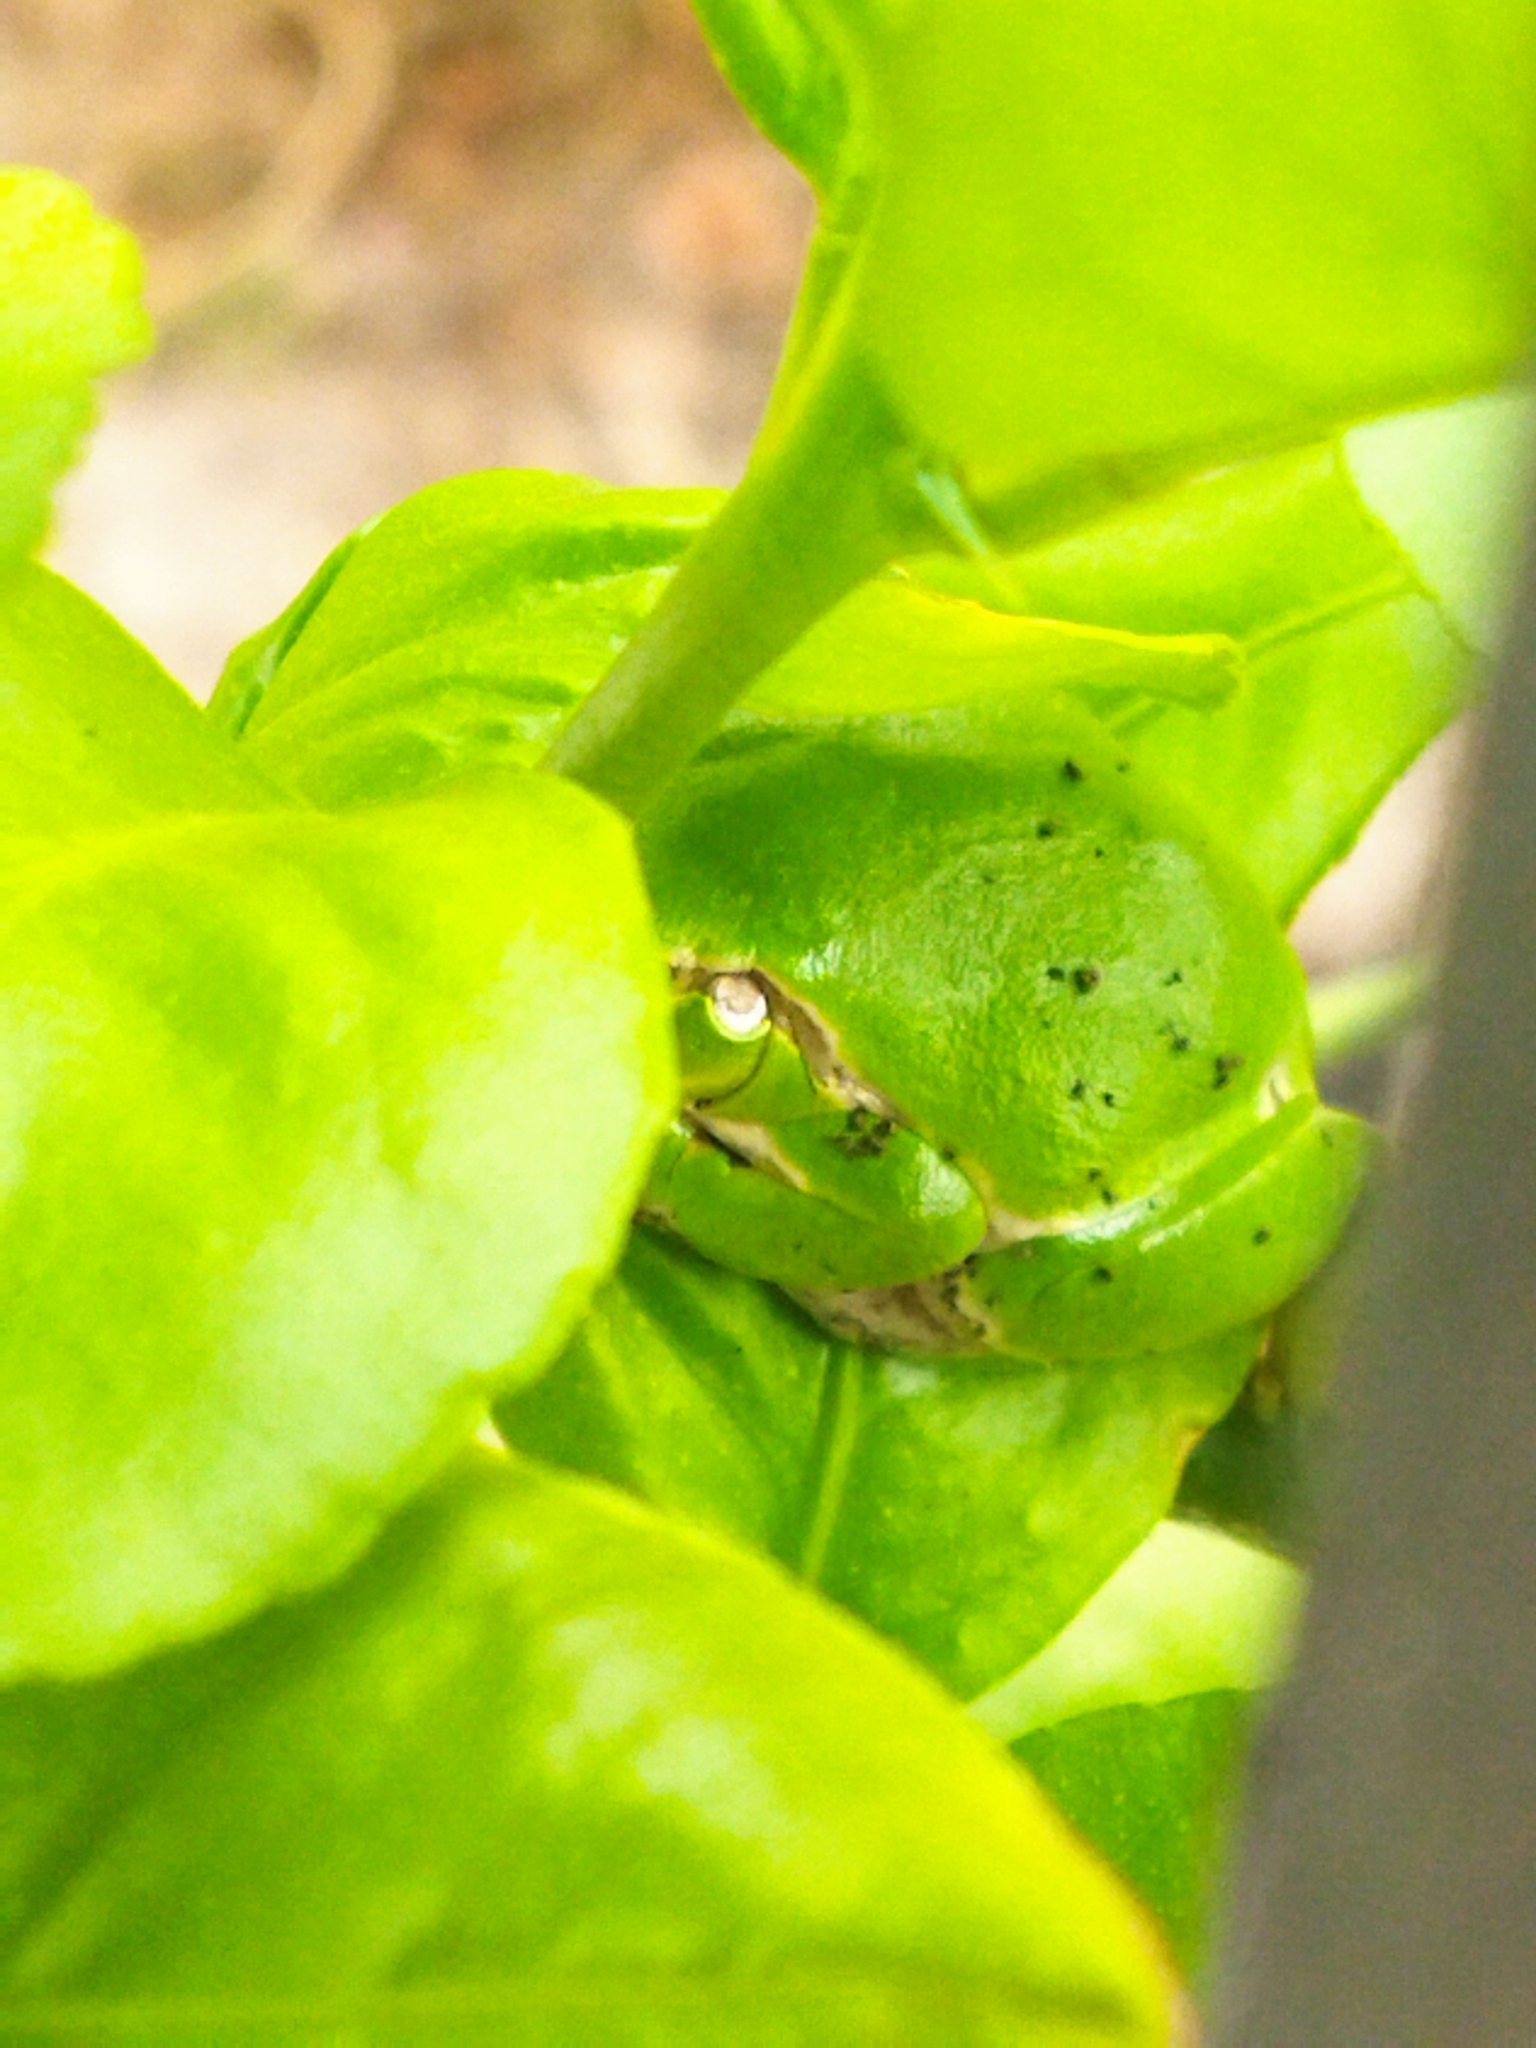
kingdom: Animalia
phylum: Chordata
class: Amphibia
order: Anura
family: Hylidae
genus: Hyla
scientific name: Hyla orientalis
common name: Caucasian treefrog
